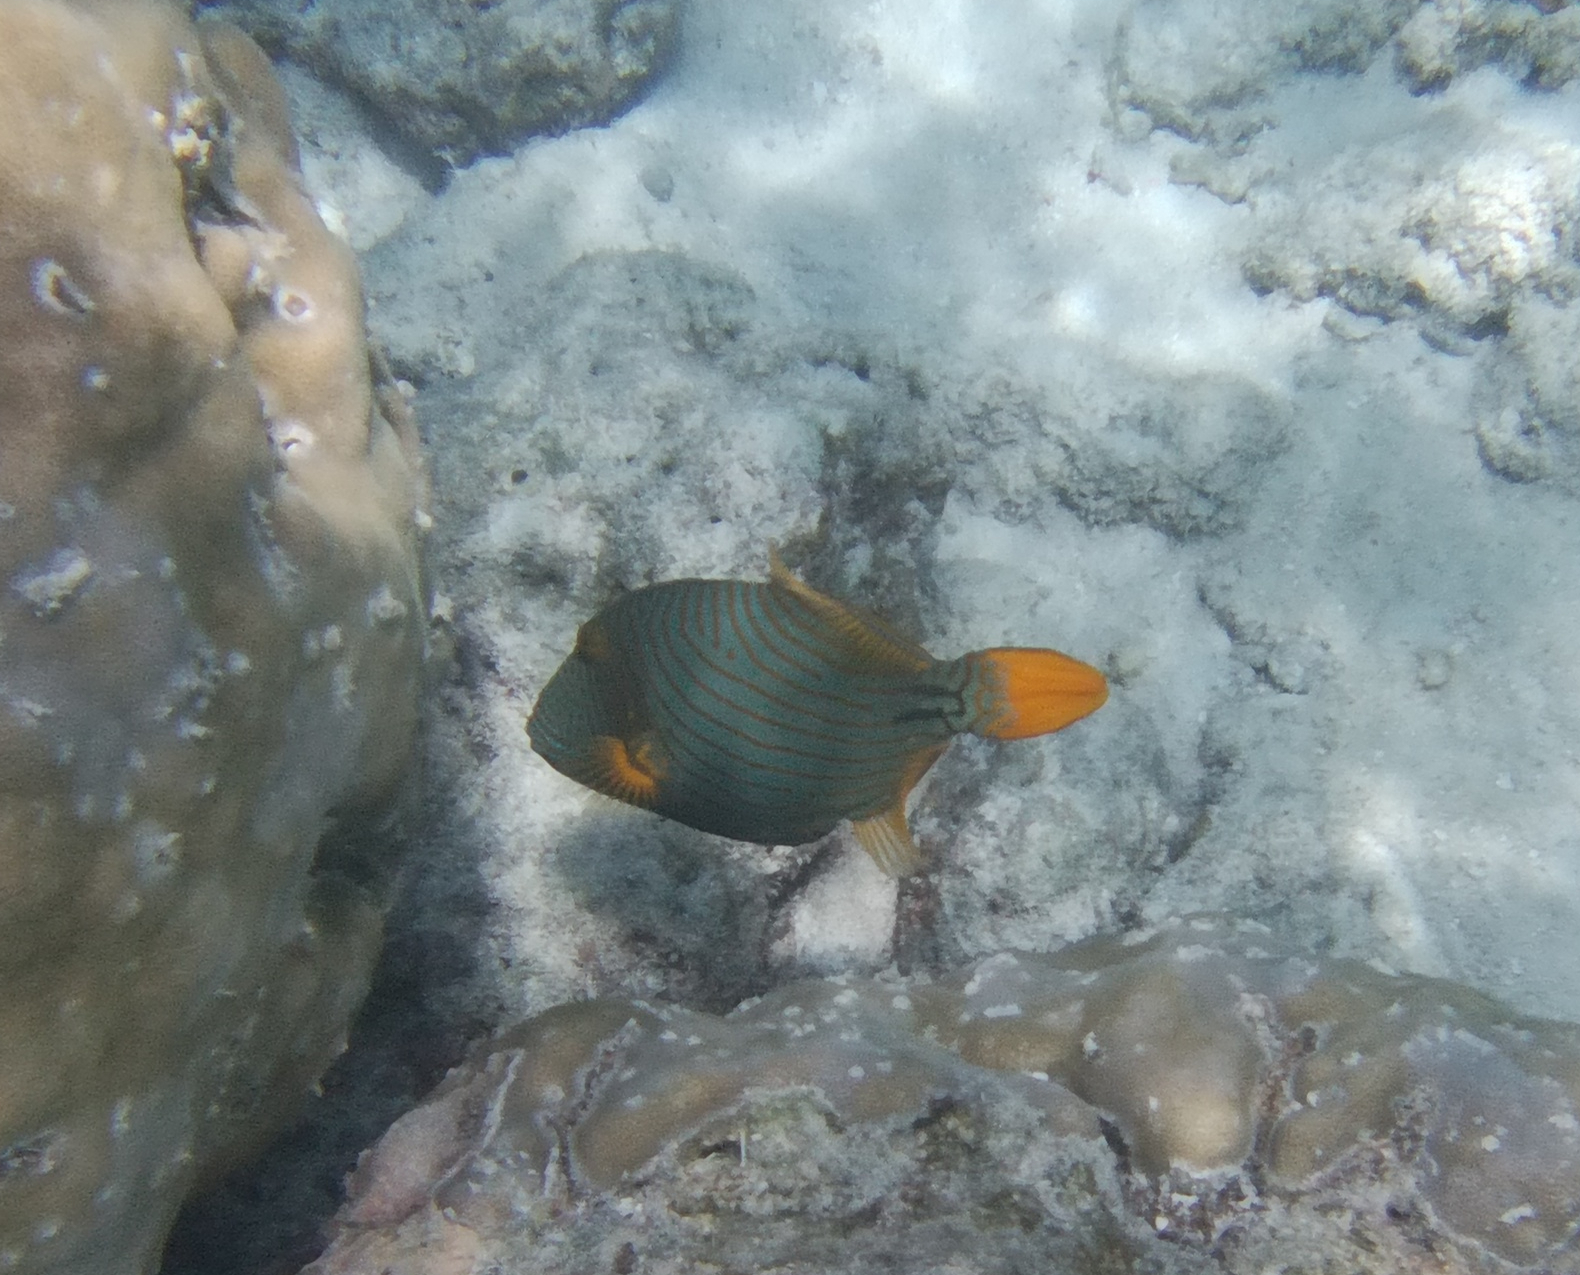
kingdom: Animalia
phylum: Chordata
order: Tetraodontiformes
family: Balistidae
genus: Balistapus
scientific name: Balistapus undulatus
